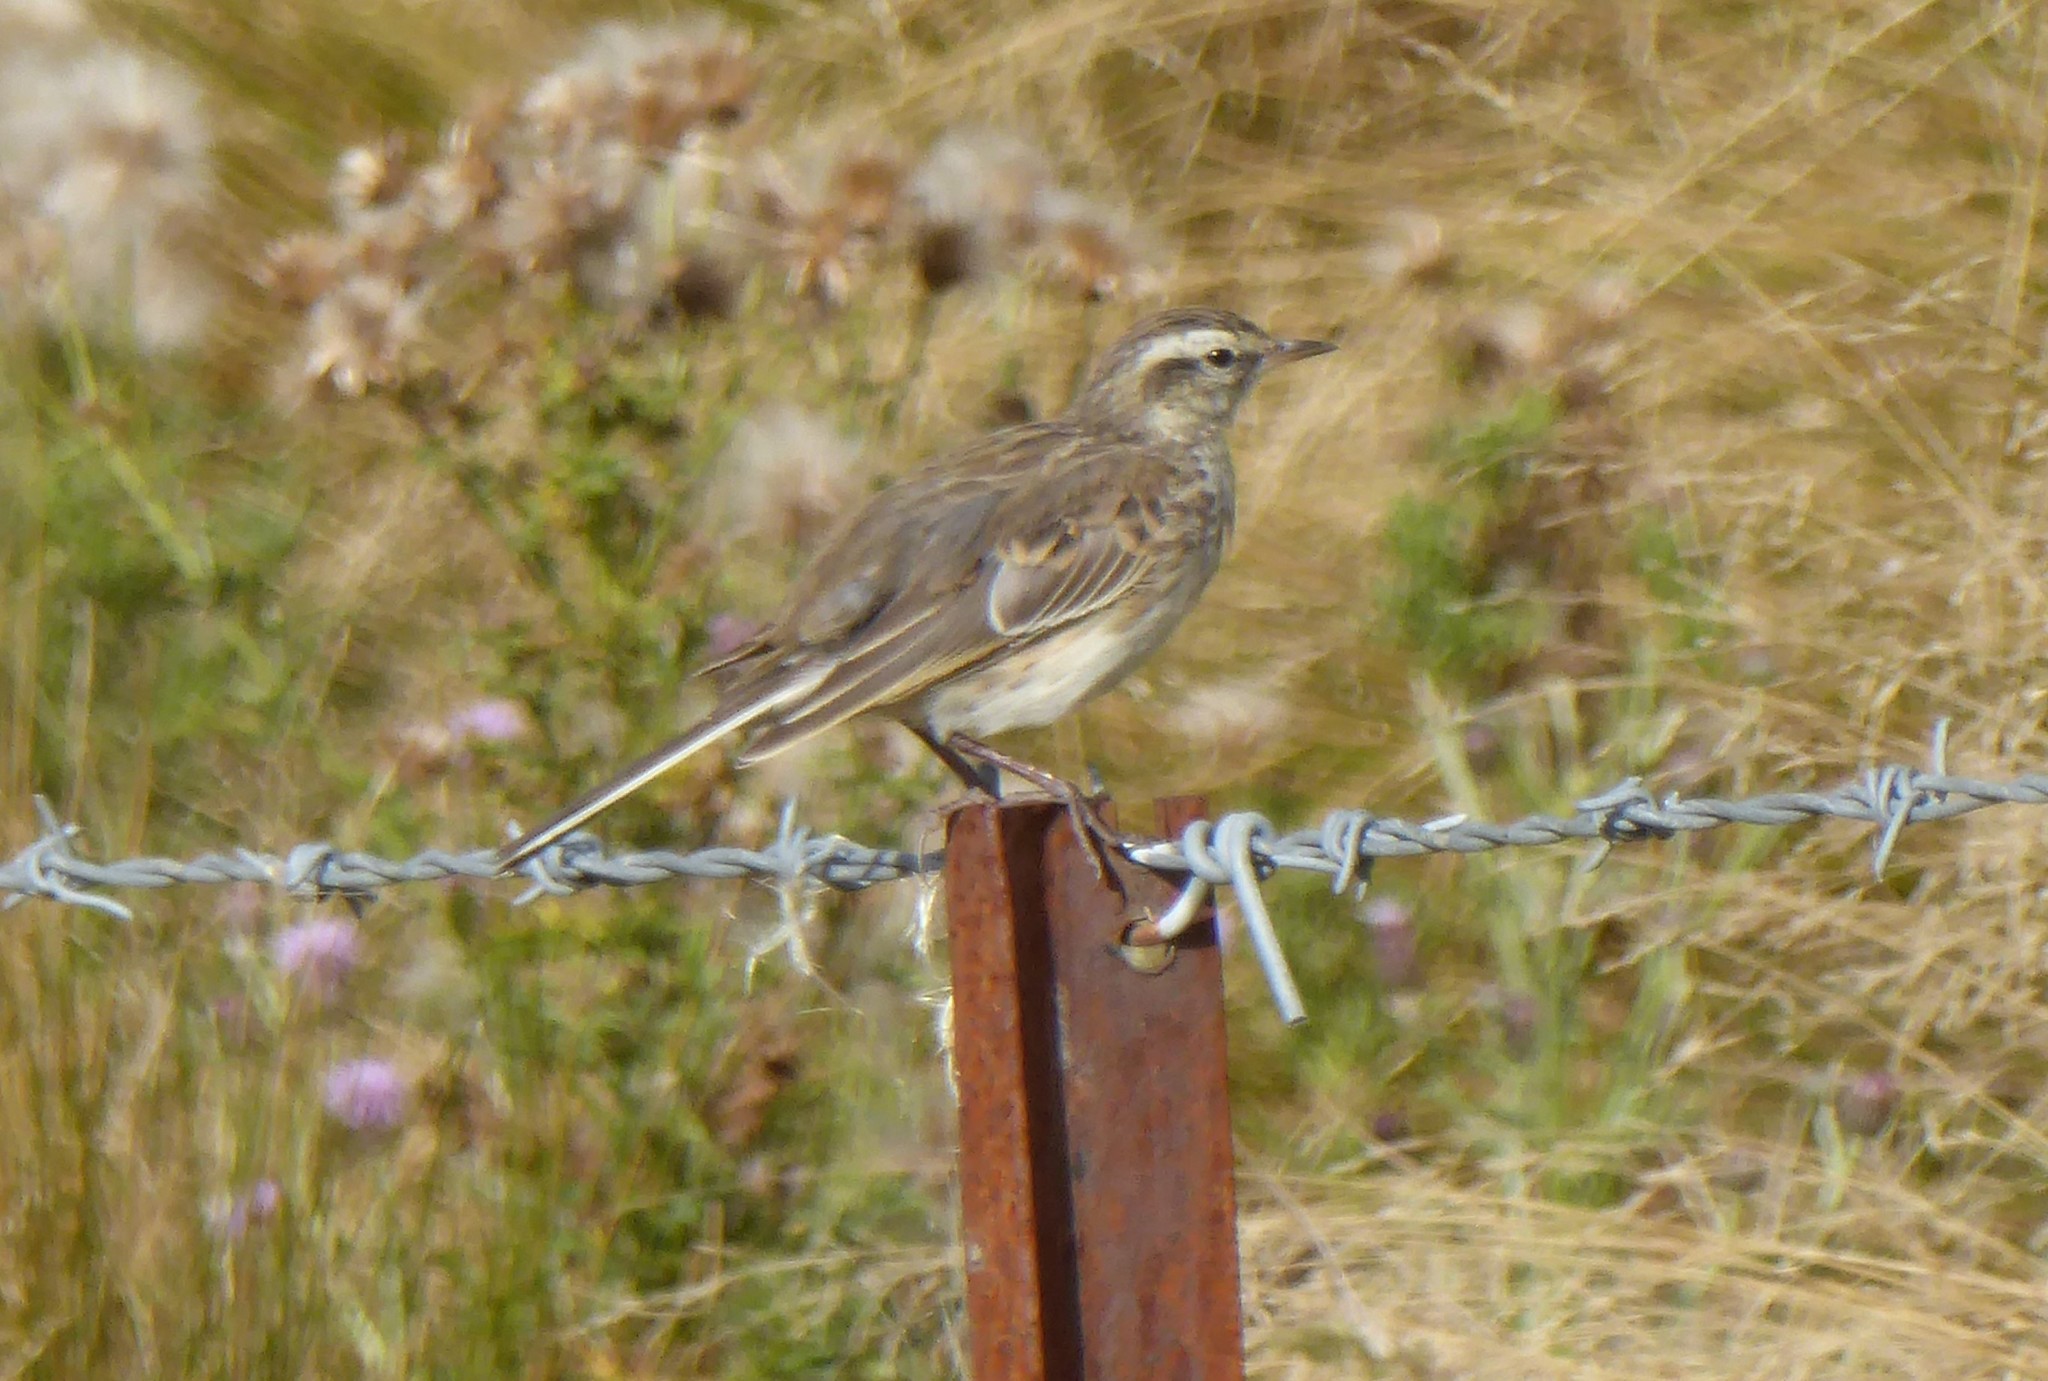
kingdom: Animalia
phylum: Chordata
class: Aves
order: Passeriformes
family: Motacillidae
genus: Anthus
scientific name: Anthus novaeseelandiae
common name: New zealand pipit
